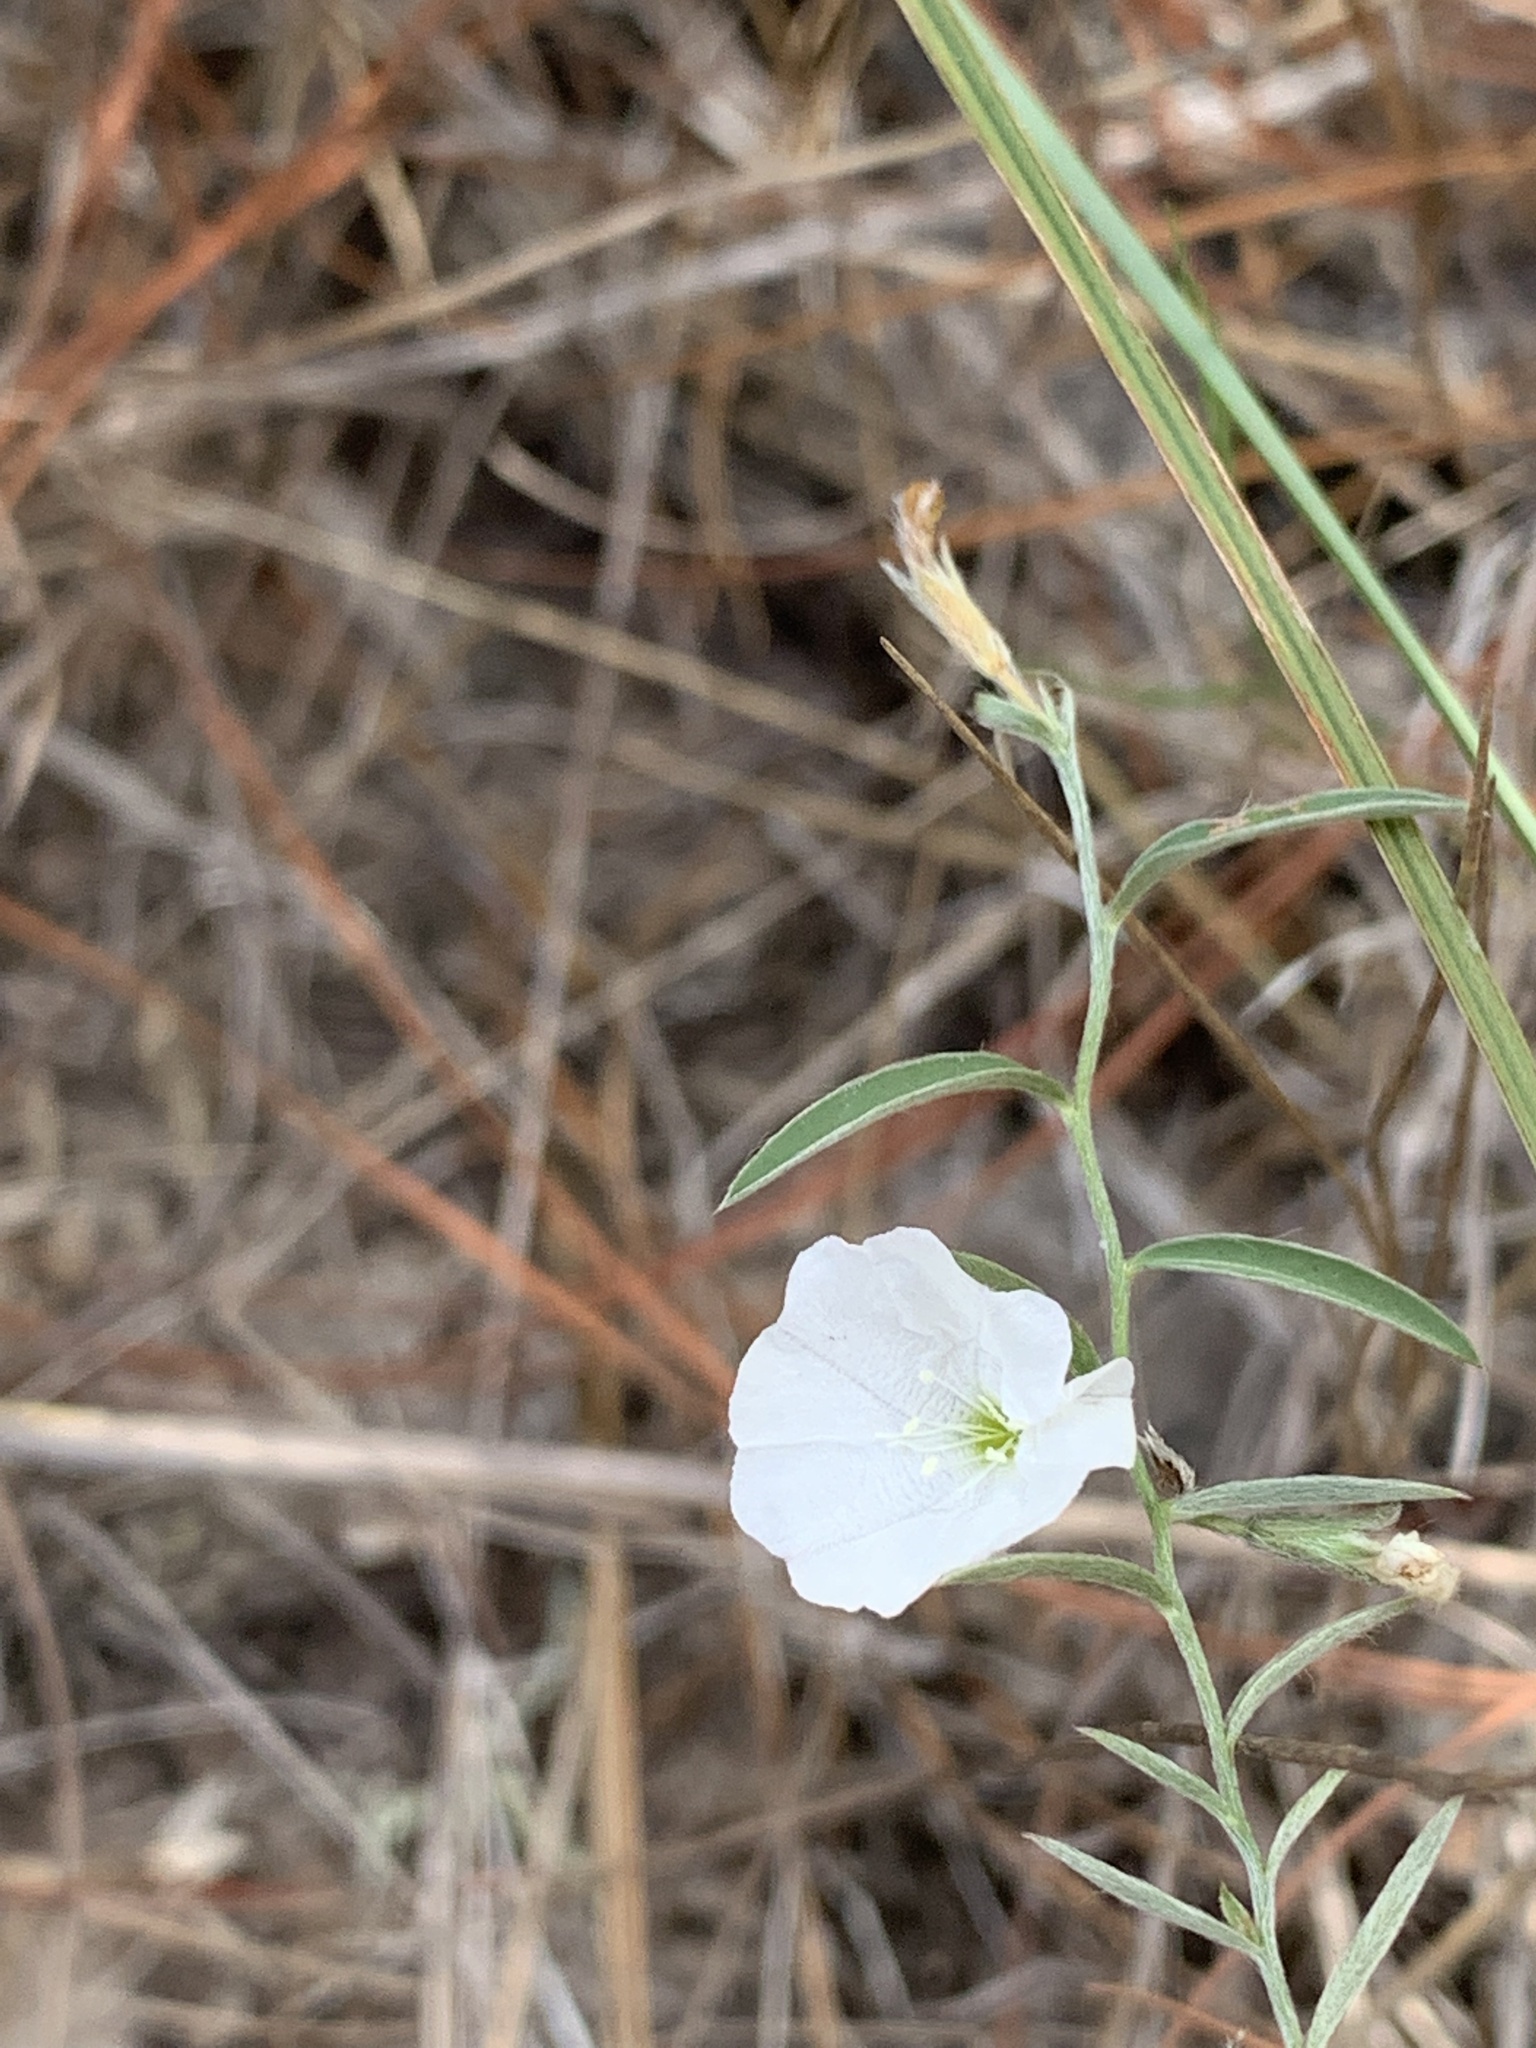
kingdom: Plantae
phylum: Tracheophyta
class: Magnoliopsida
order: Solanales
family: Convolvulaceae
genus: Evolvulus
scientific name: Evolvulus sericeus
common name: Blue dots
